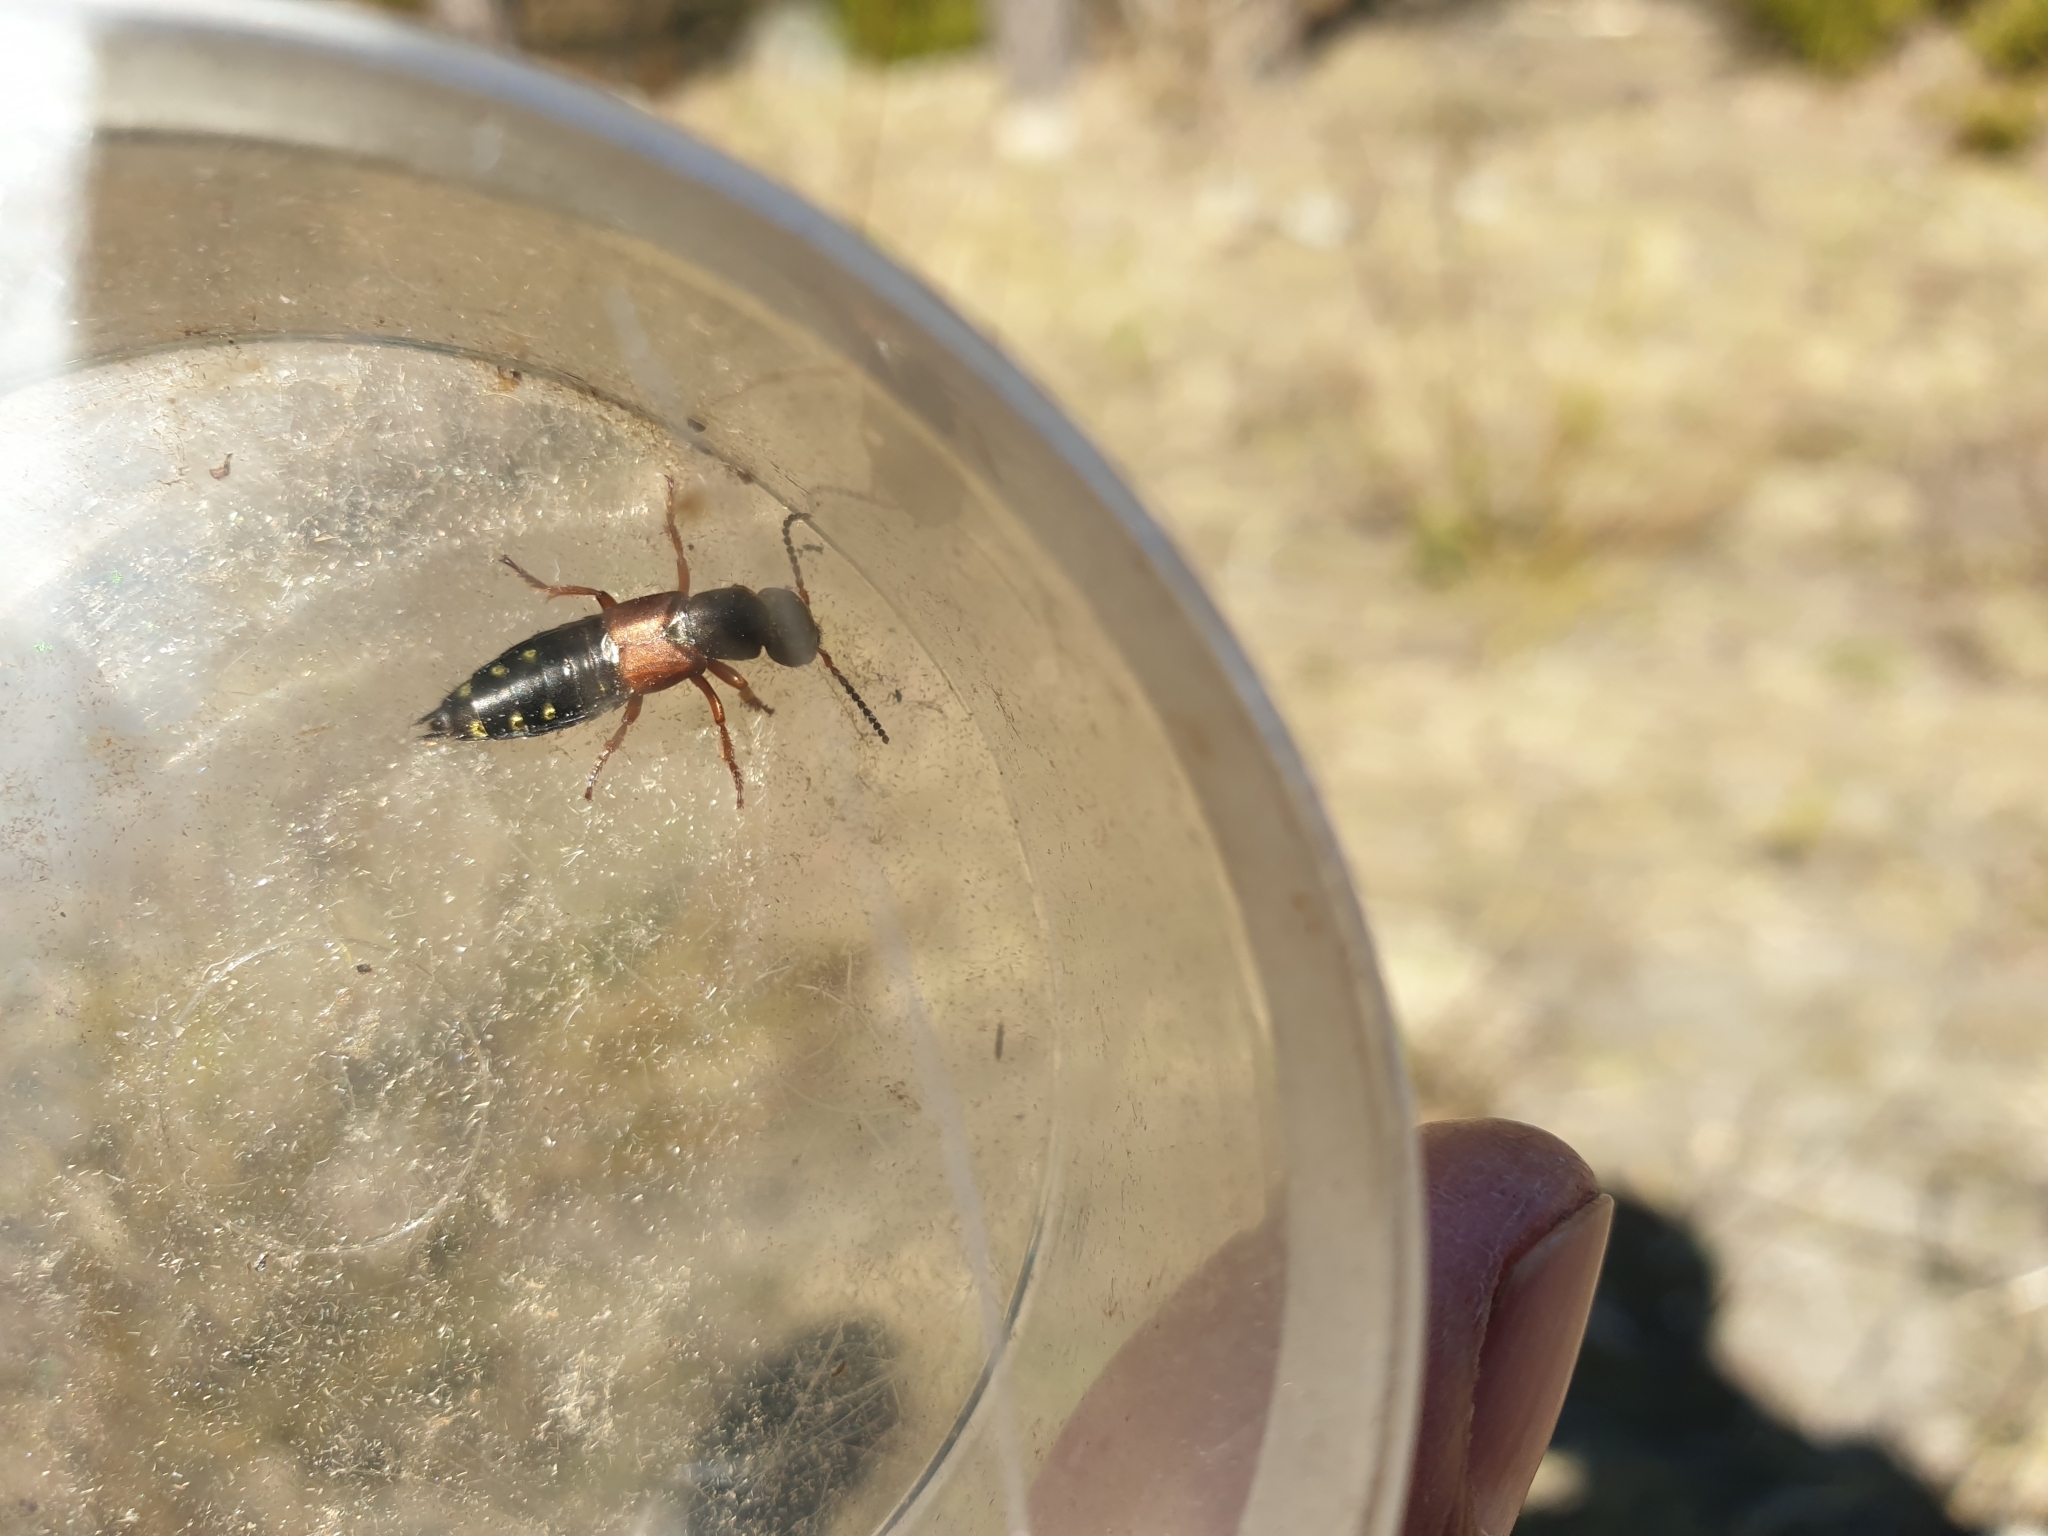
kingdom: Animalia
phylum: Arthropoda
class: Insecta
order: Coleoptera
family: Staphylinidae
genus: Staphylinus
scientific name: Staphylinus erythropterus
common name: Staph beetle
